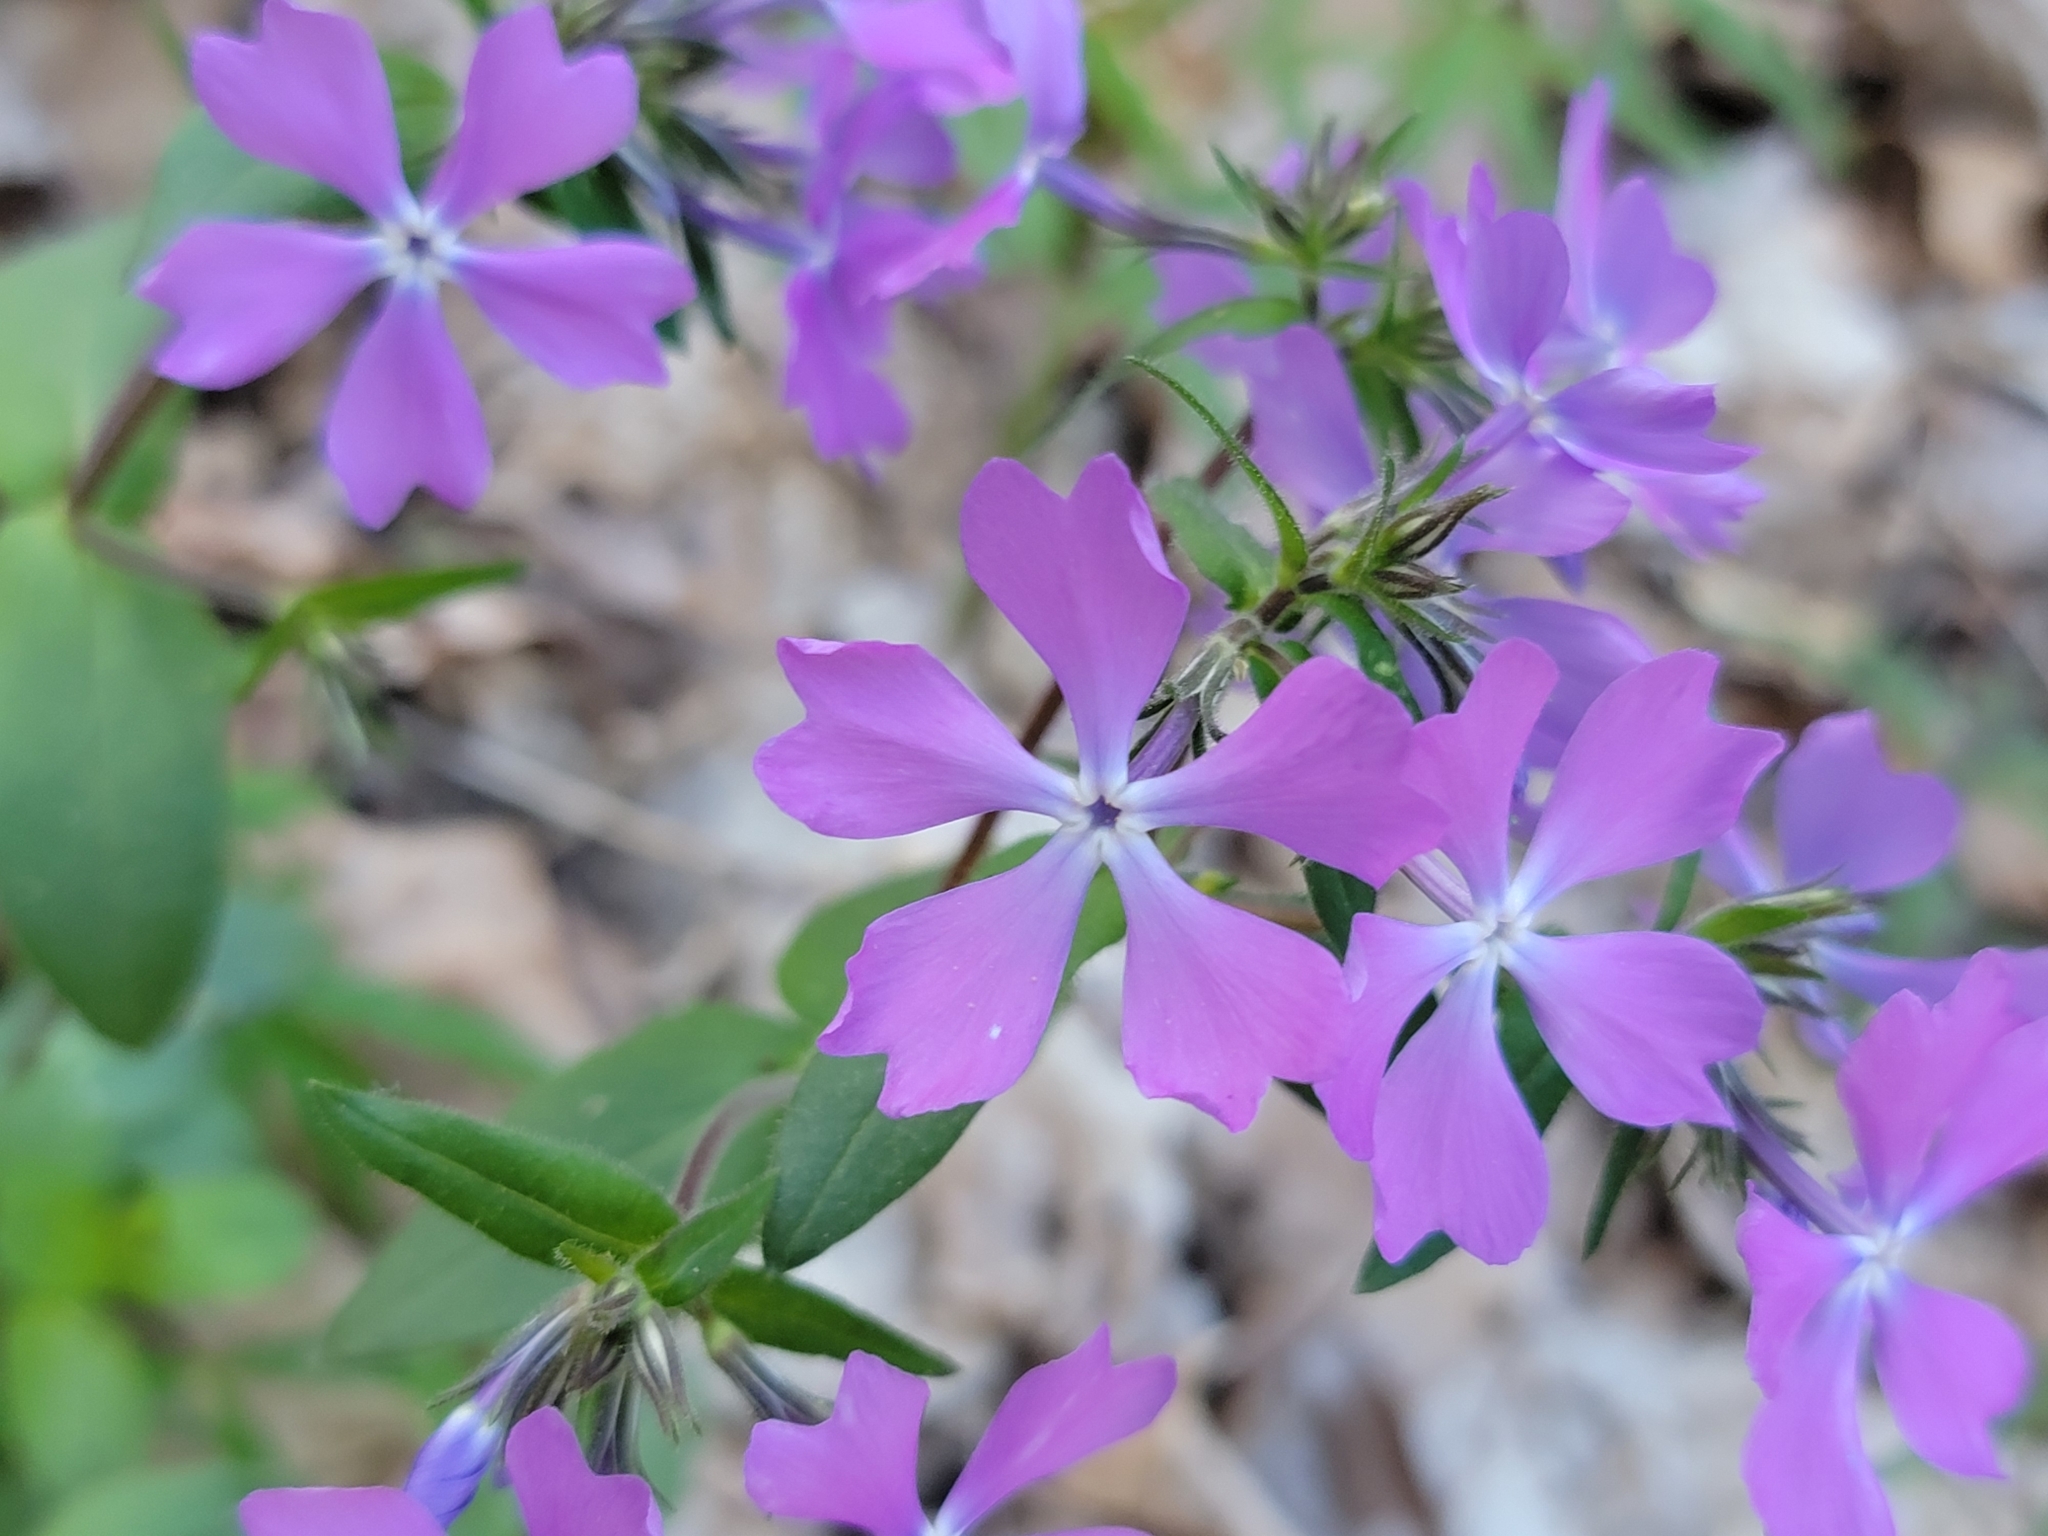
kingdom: Plantae
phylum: Tracheophyta
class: Magnoliopsida
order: Ericales
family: Polemoniaceae
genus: Phlox
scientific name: Phlox divaricata
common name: Blue phlox
